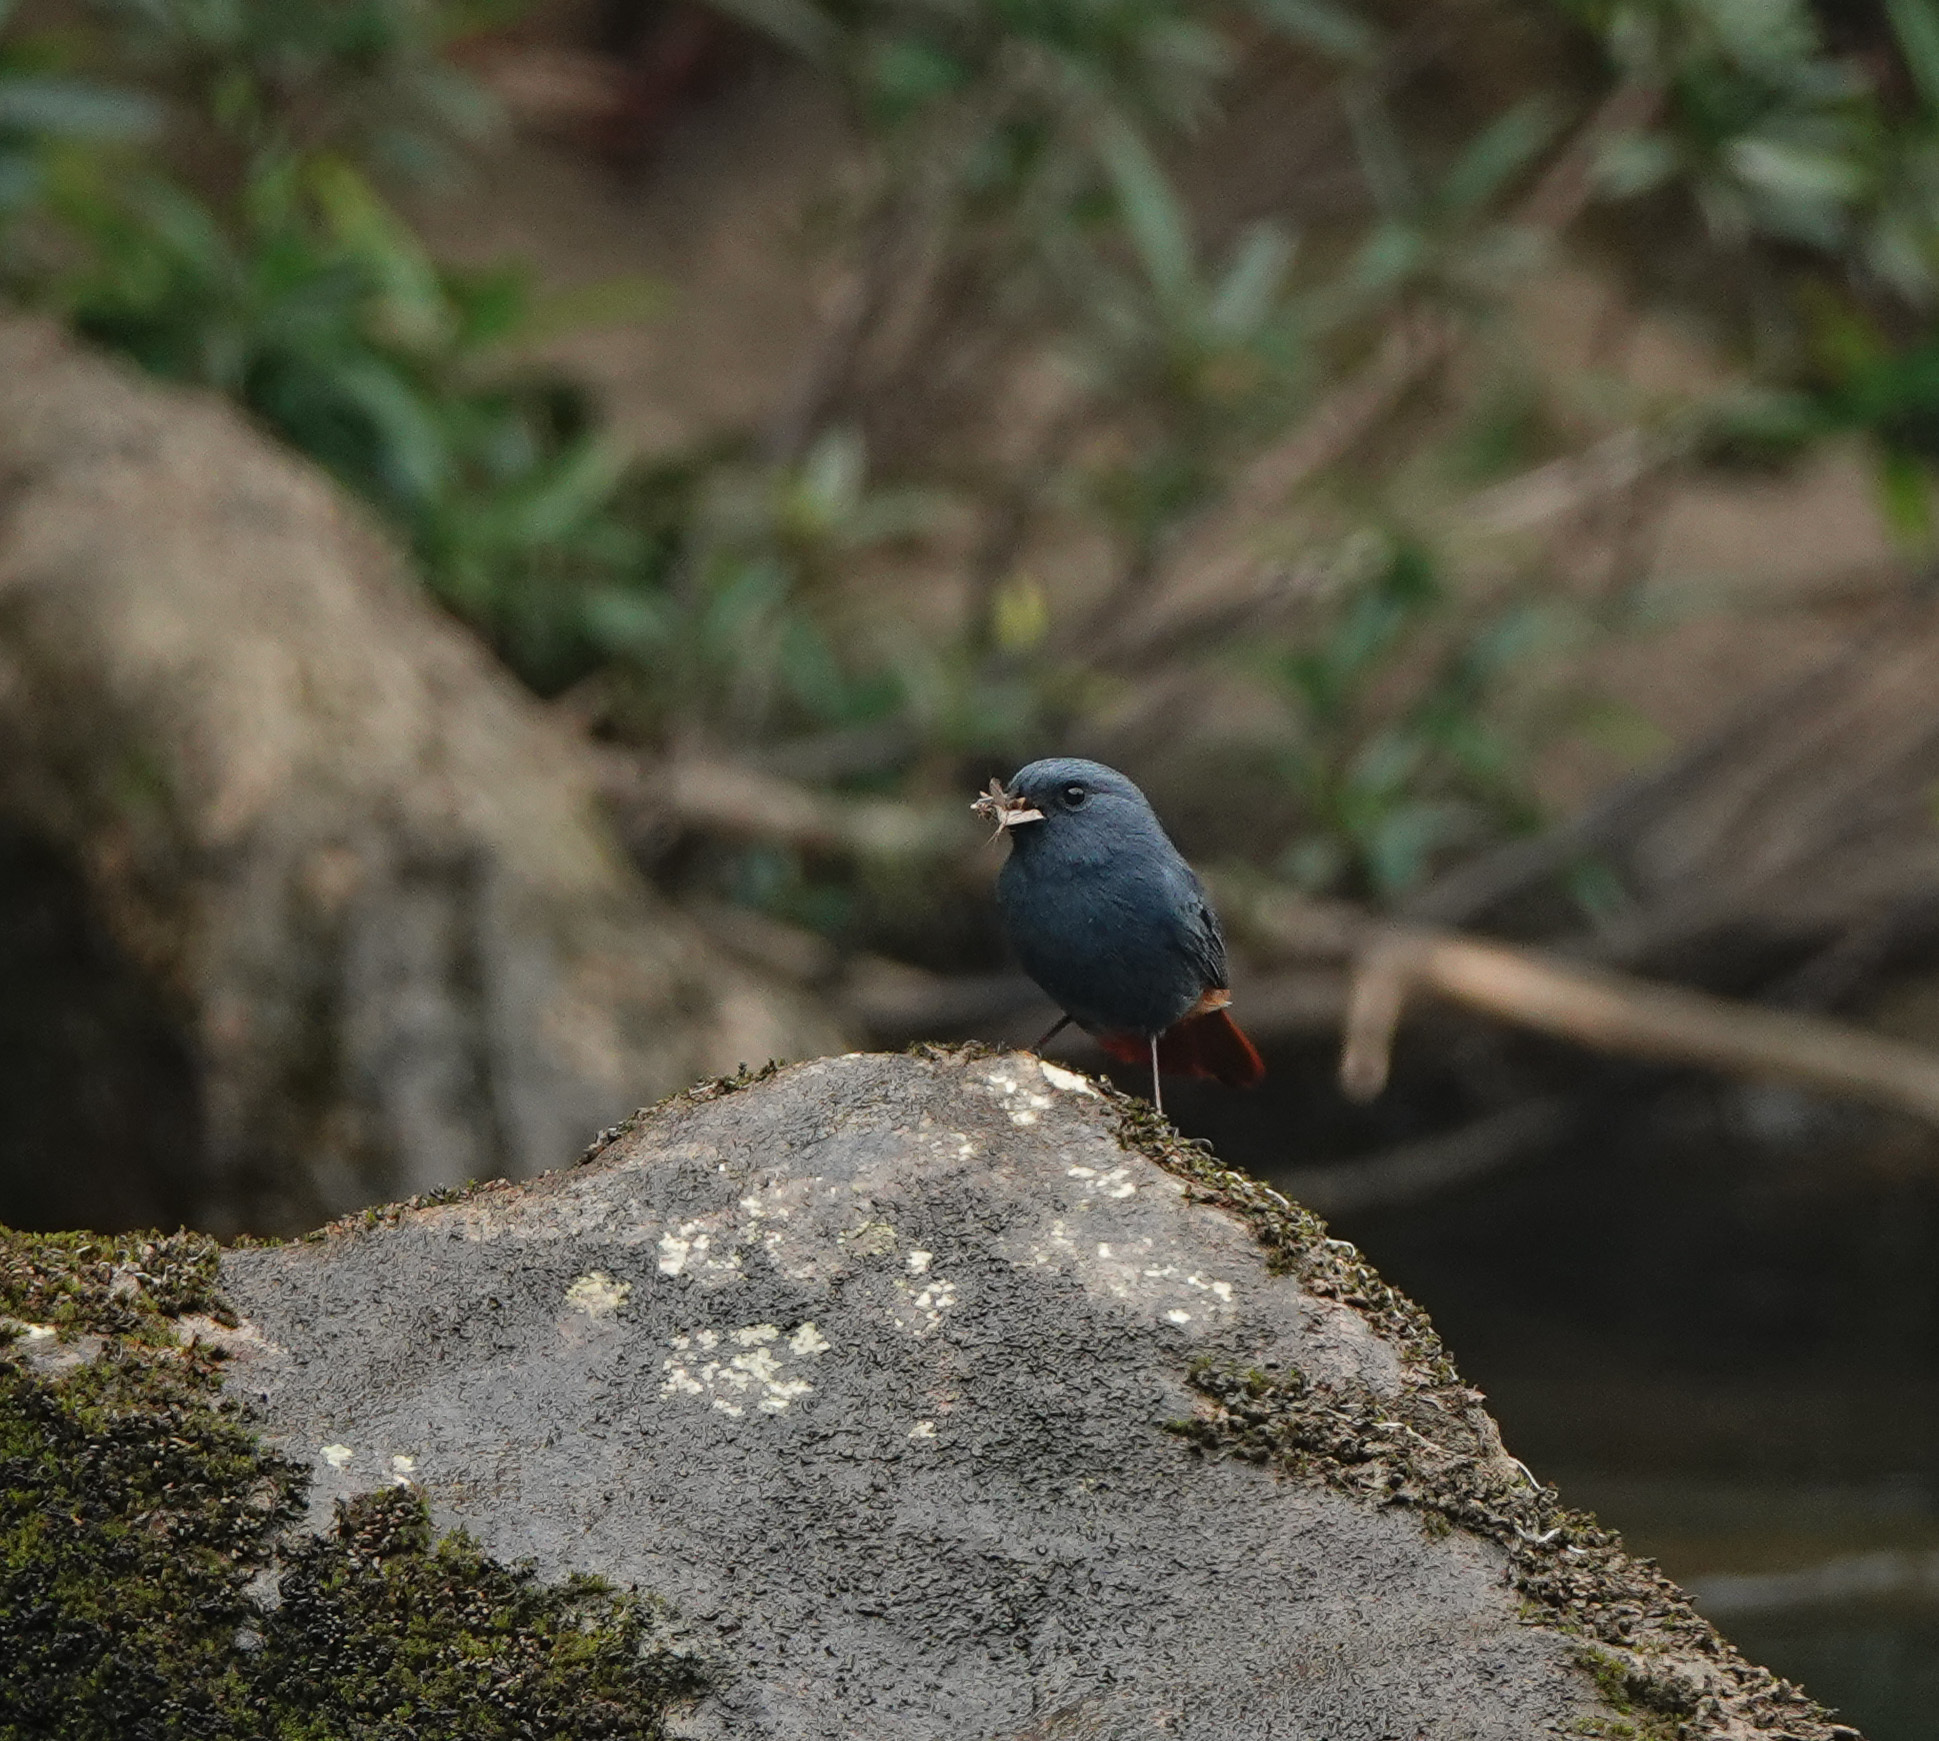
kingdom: Animalia
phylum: Chordata
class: Aves
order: Passeriformes
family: Muscicapidae
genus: Phoenicurus
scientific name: Phoenicurus fuliginosus
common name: Plumbeous water redstart
